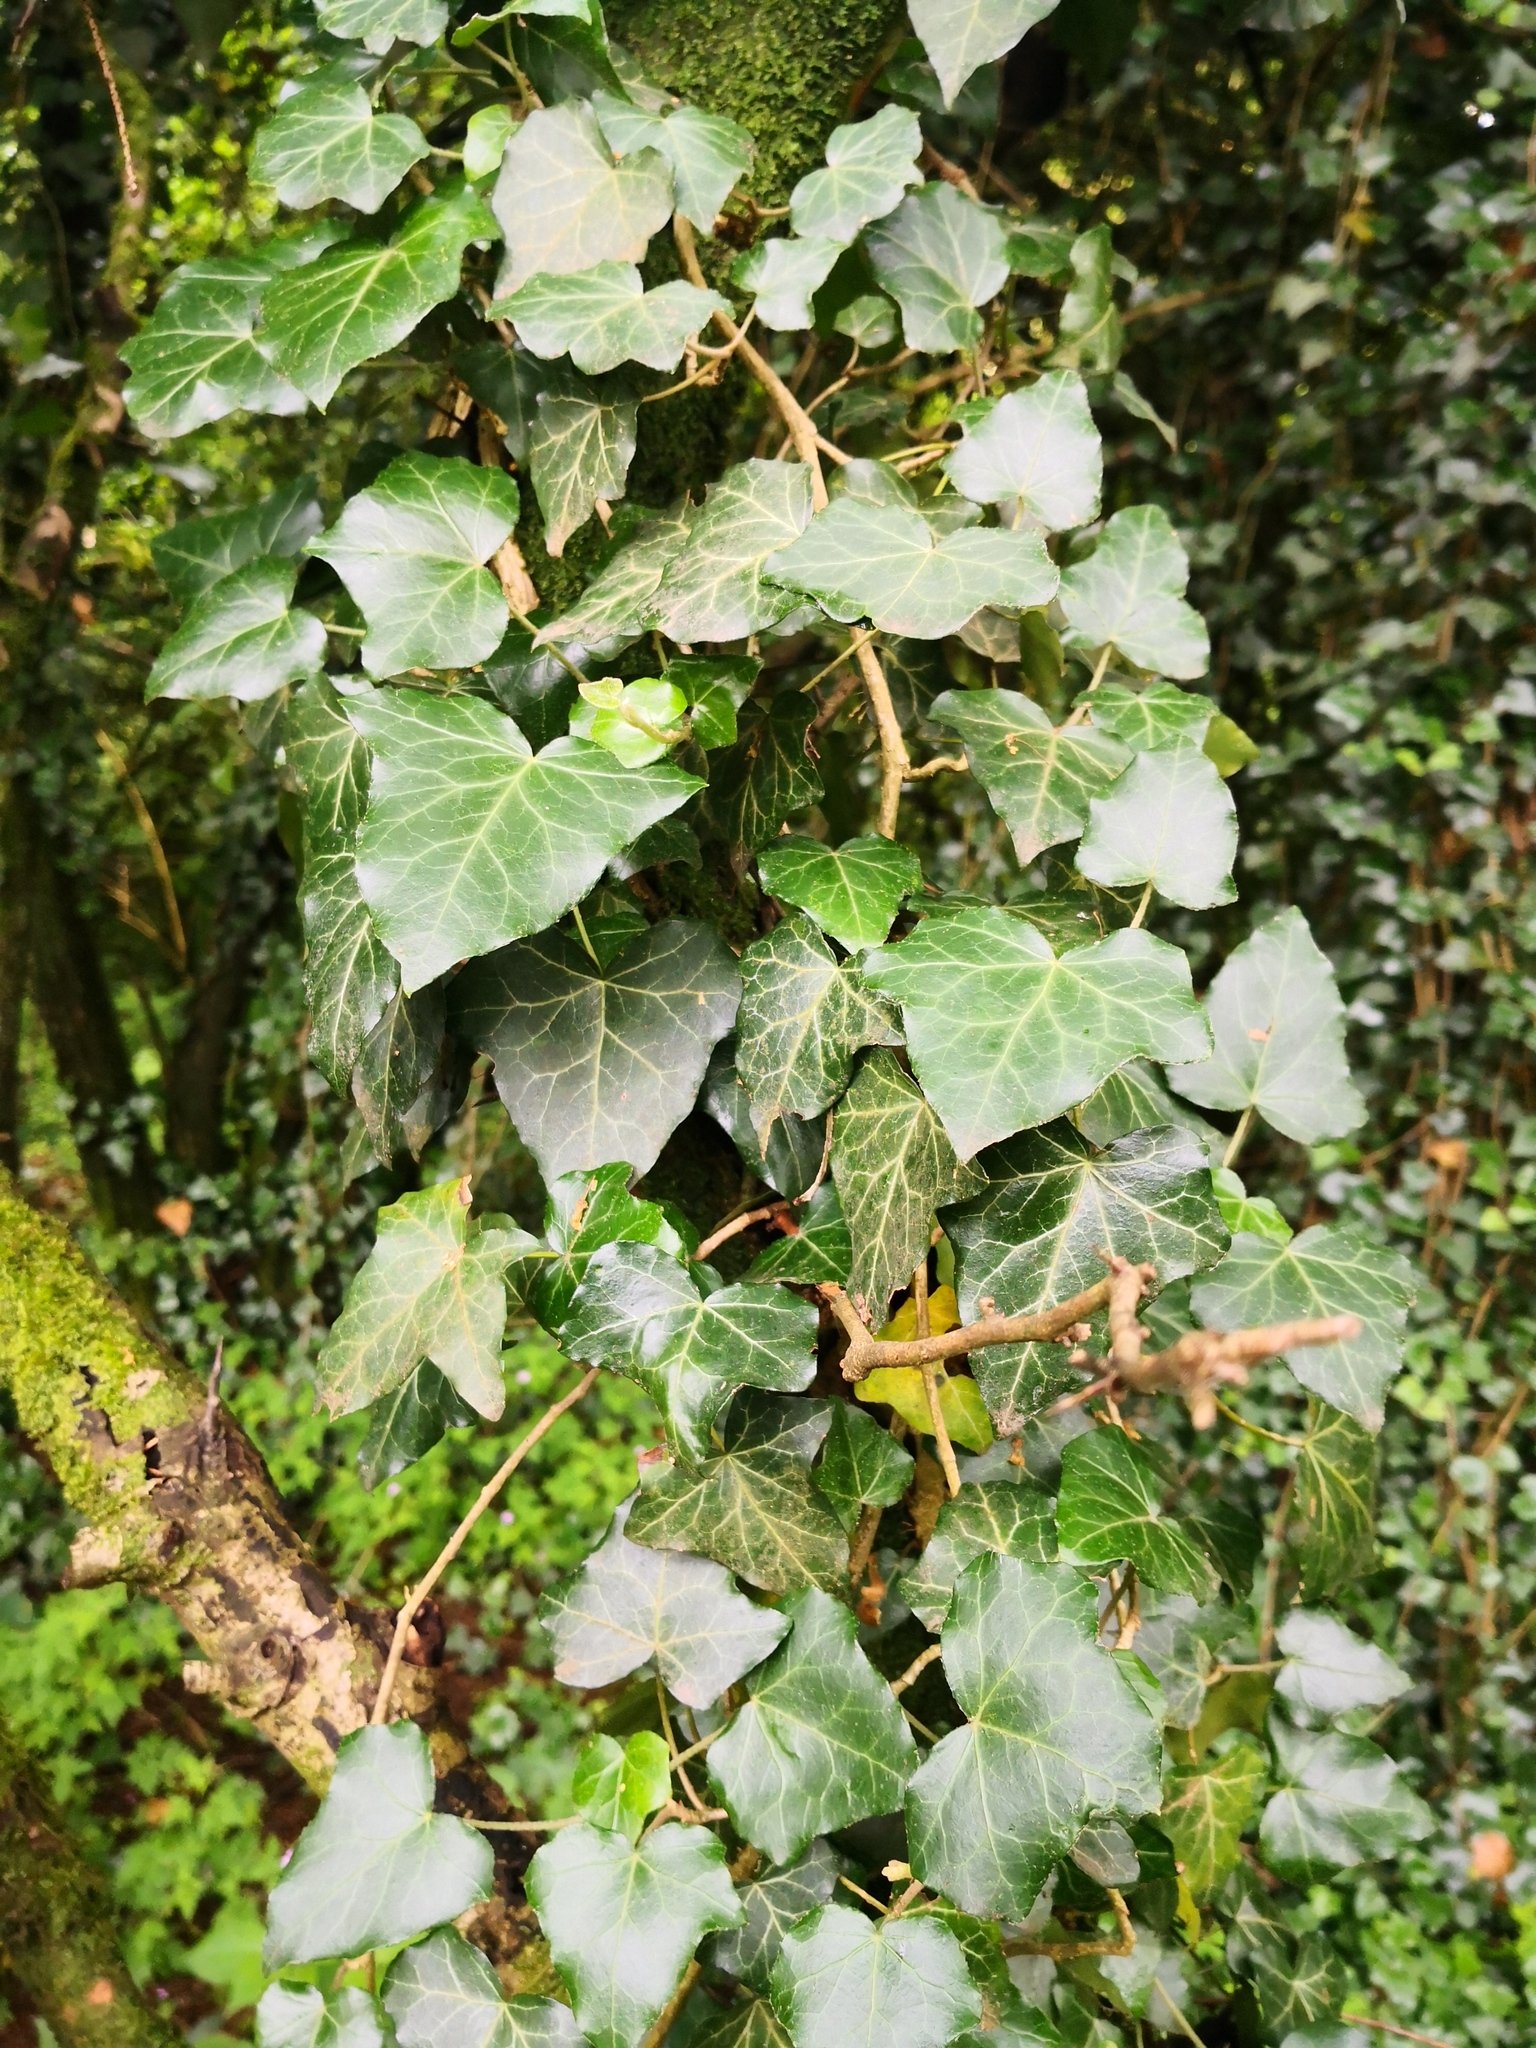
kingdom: Plantae
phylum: Tracheophyta
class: Magnoliopsida
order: Apiales
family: Araliaceae
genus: Hedera
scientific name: Hedera helix
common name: Ivy
